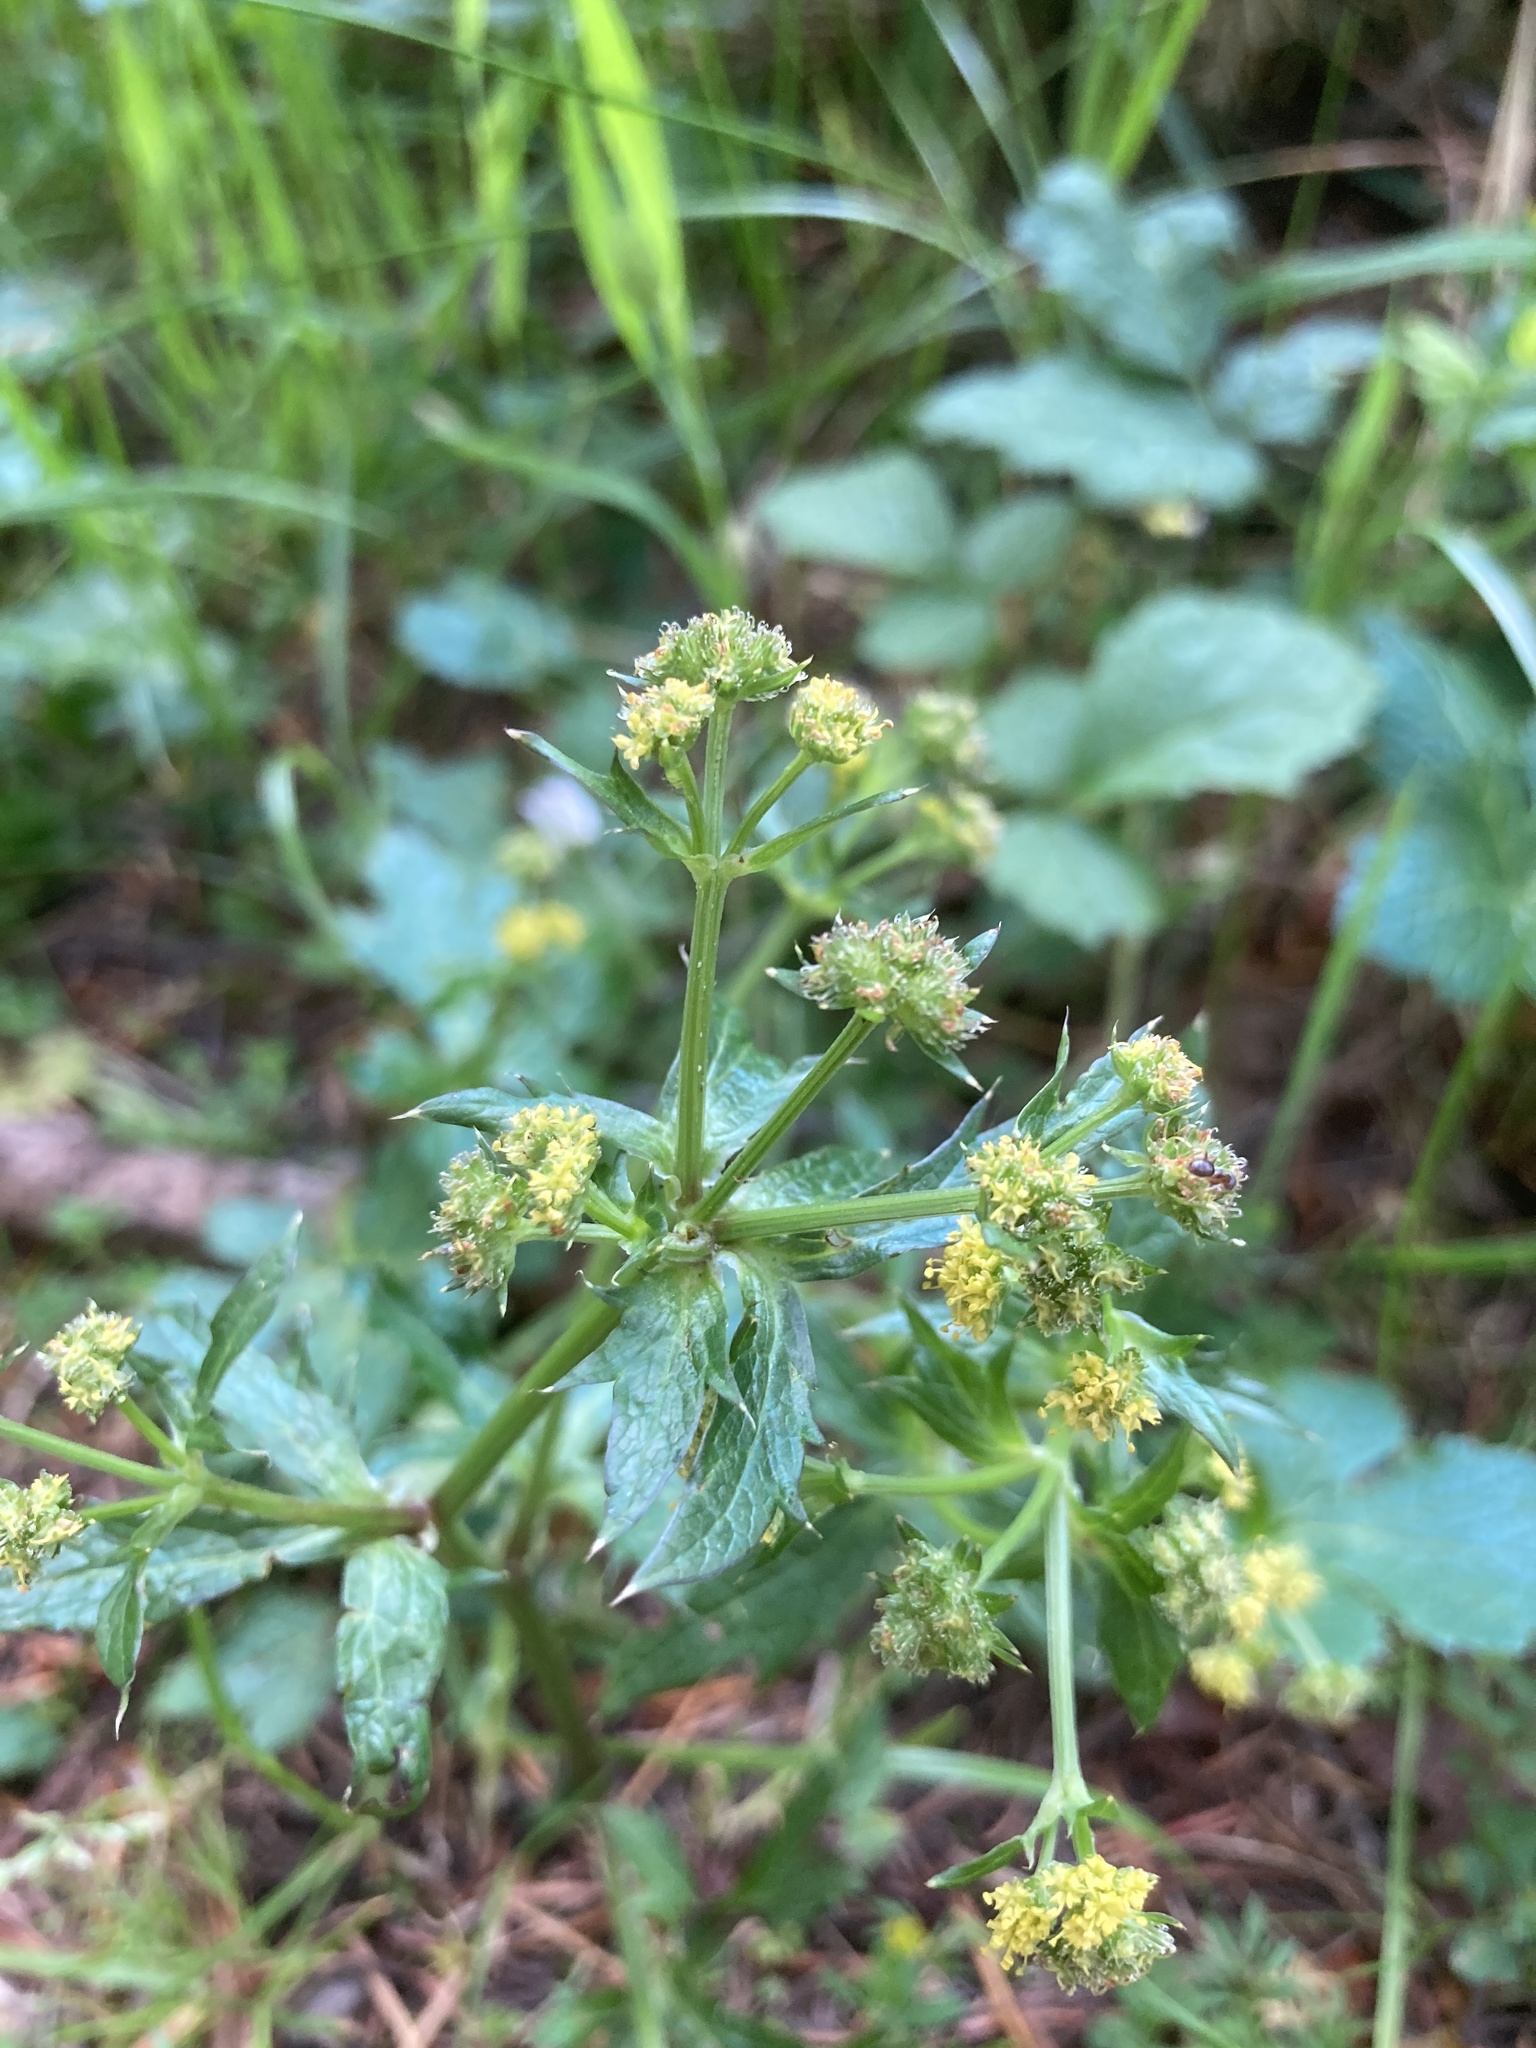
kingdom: Plantae
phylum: Tracheophyta
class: Magnoliopsida
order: Apiales
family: Apiaceae
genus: Sanicula
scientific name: Sanicula crassicaulis
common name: Western snakeroot
